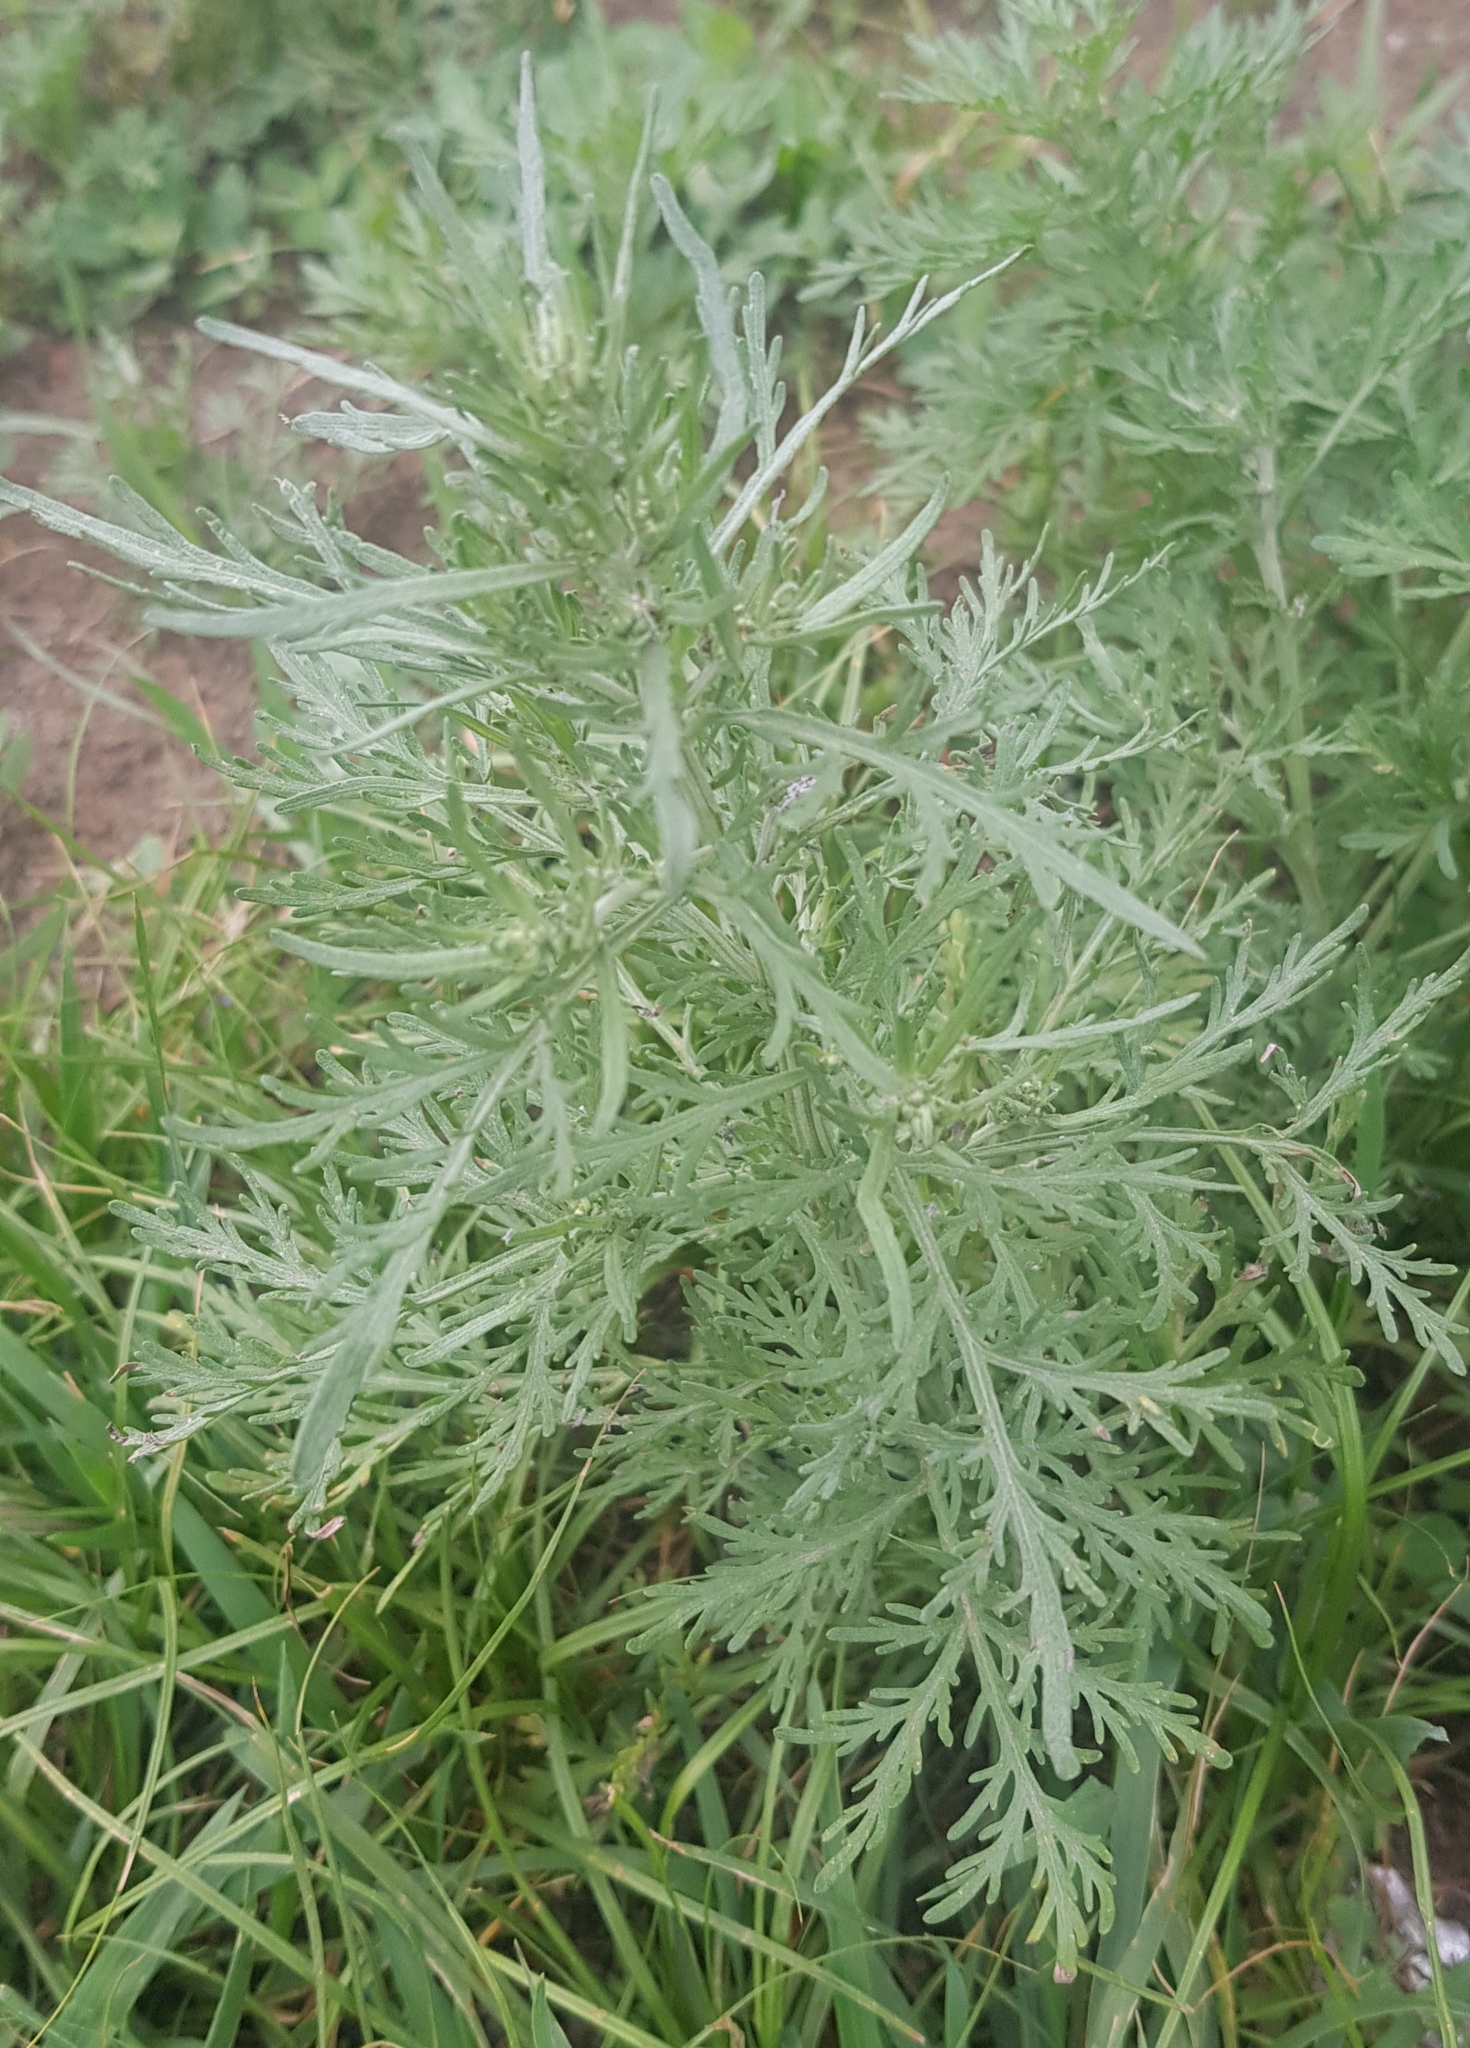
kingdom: Plantae
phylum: Tracheophyta
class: Magnoliopsida
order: Asterales
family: Asteraceae
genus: Artemisia
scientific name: Artemisia sieversiana
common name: Sieversian wormwood
